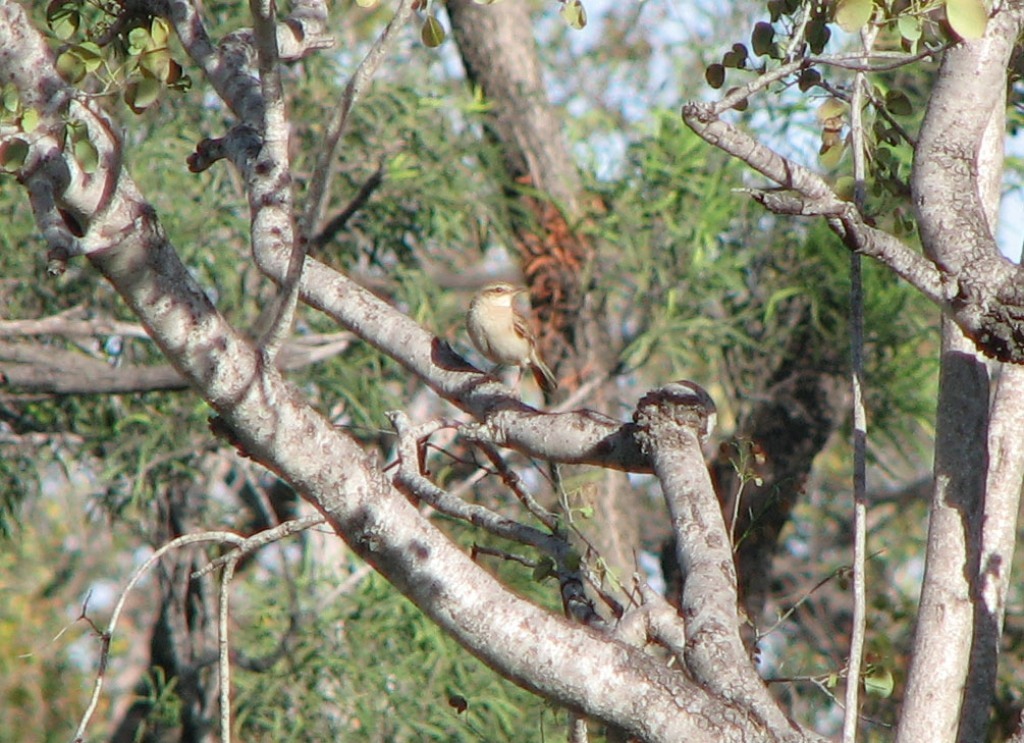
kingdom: Animalia
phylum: Chordata
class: Aves
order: Passeriformes
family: Locustellidae
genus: Megalurus
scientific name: Megalurus mathewsi
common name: Rufous songlark
